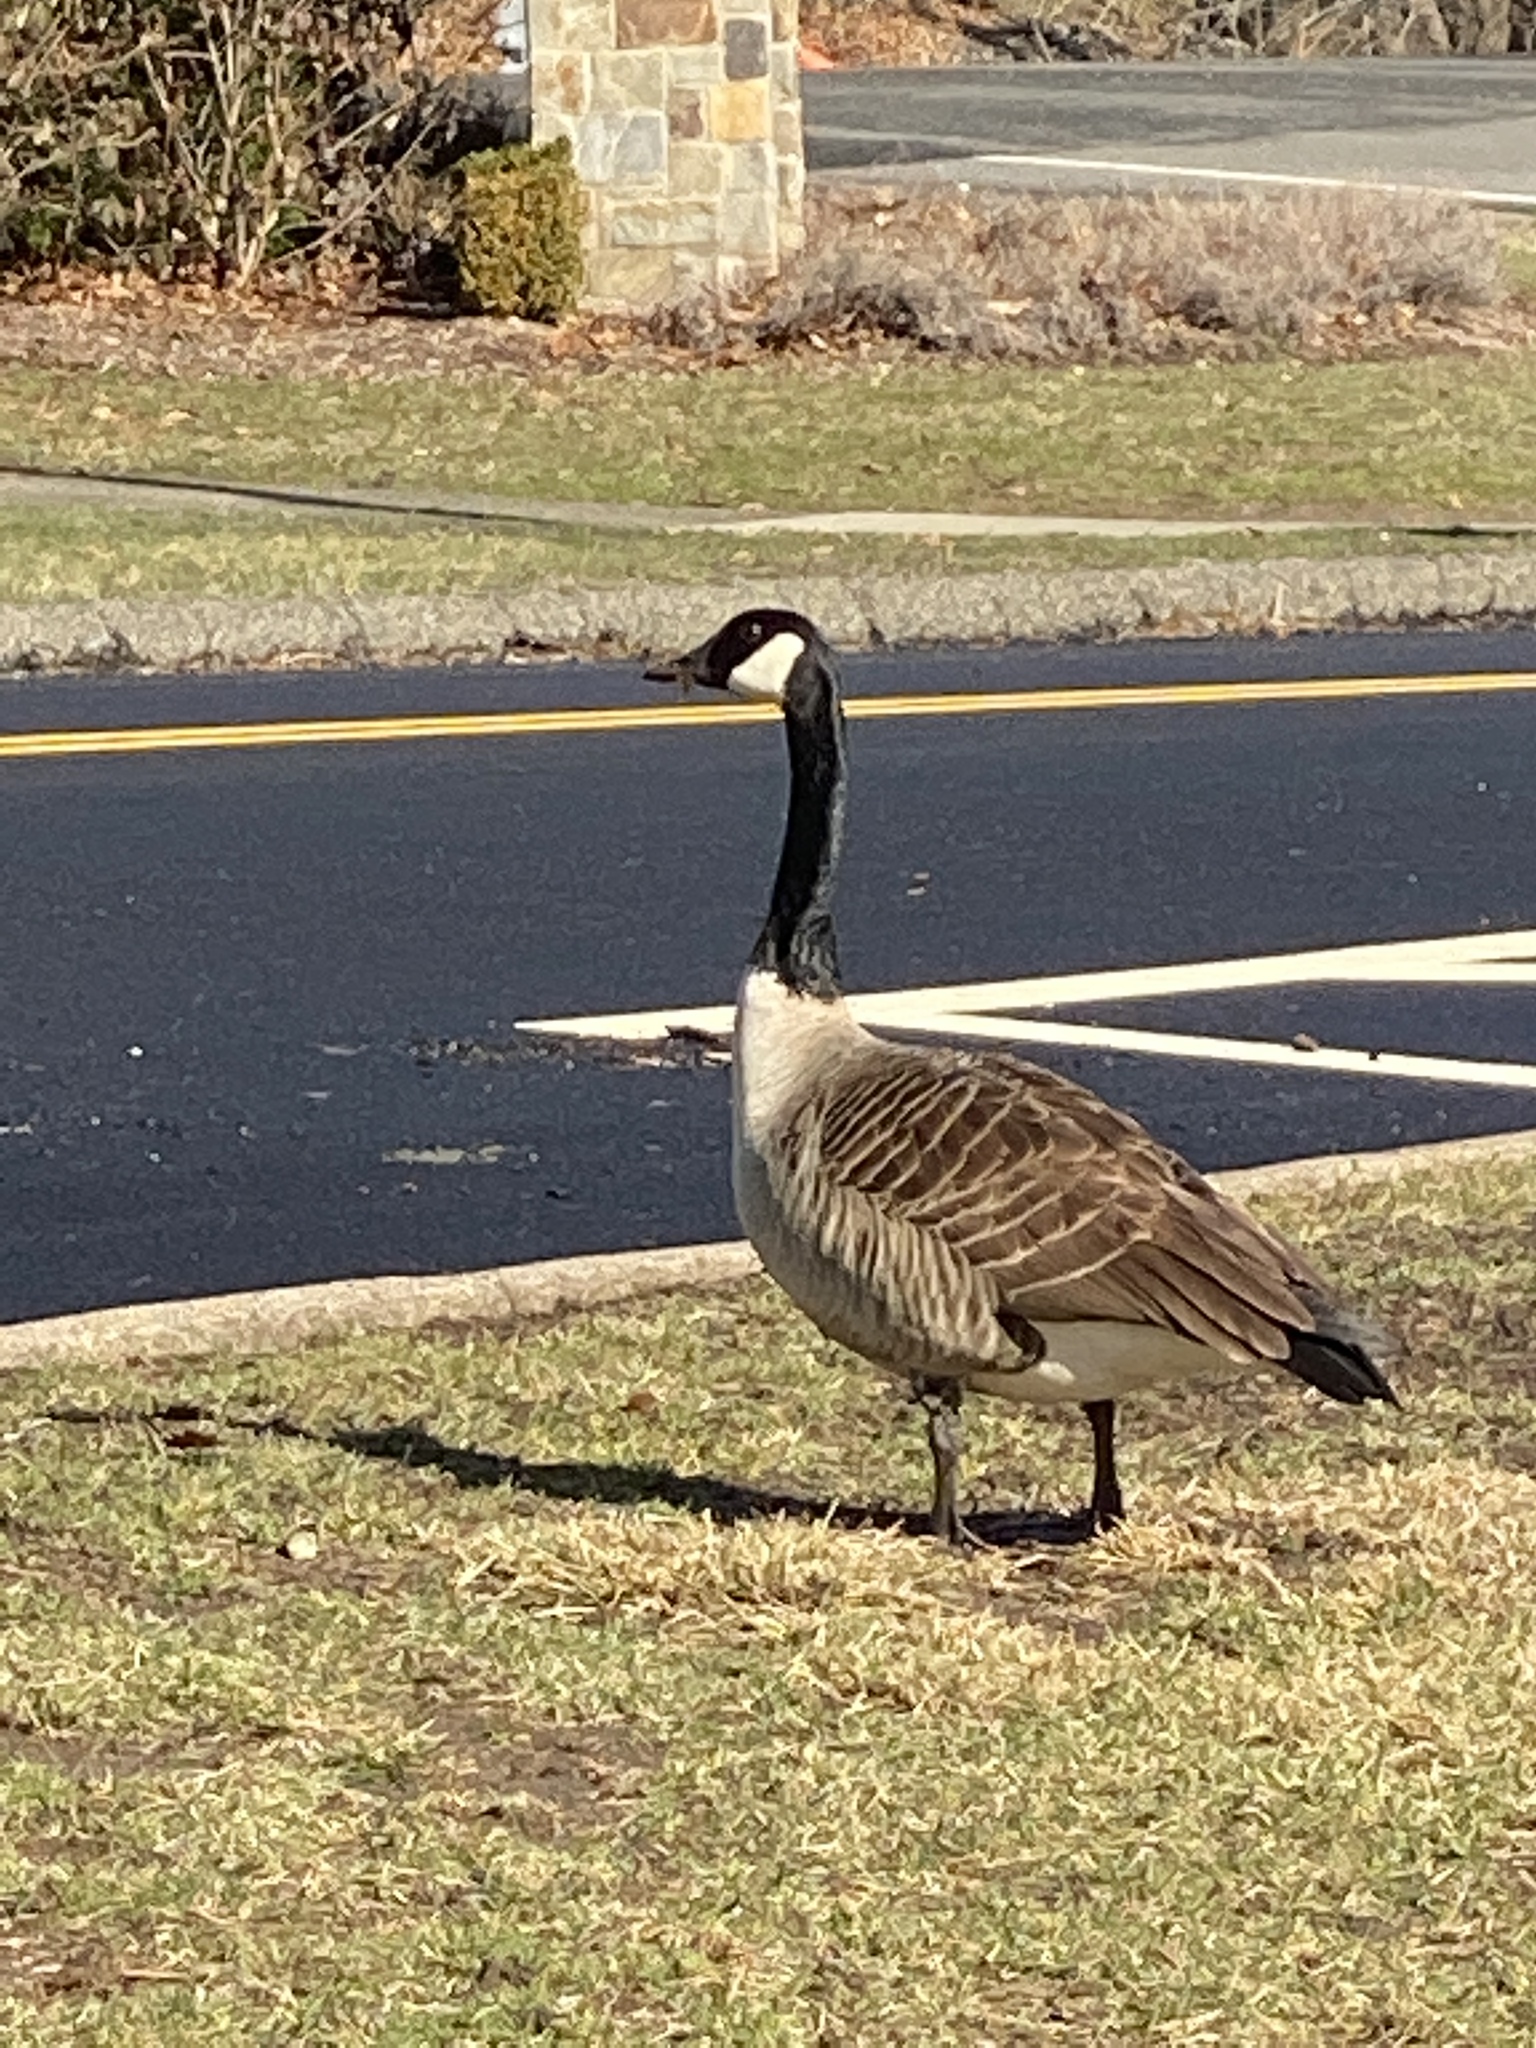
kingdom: Animalia
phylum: Chordata
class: Aves
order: Anseriformes
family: Anatidae
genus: Branta
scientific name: Branta canadensis
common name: Canada goose
